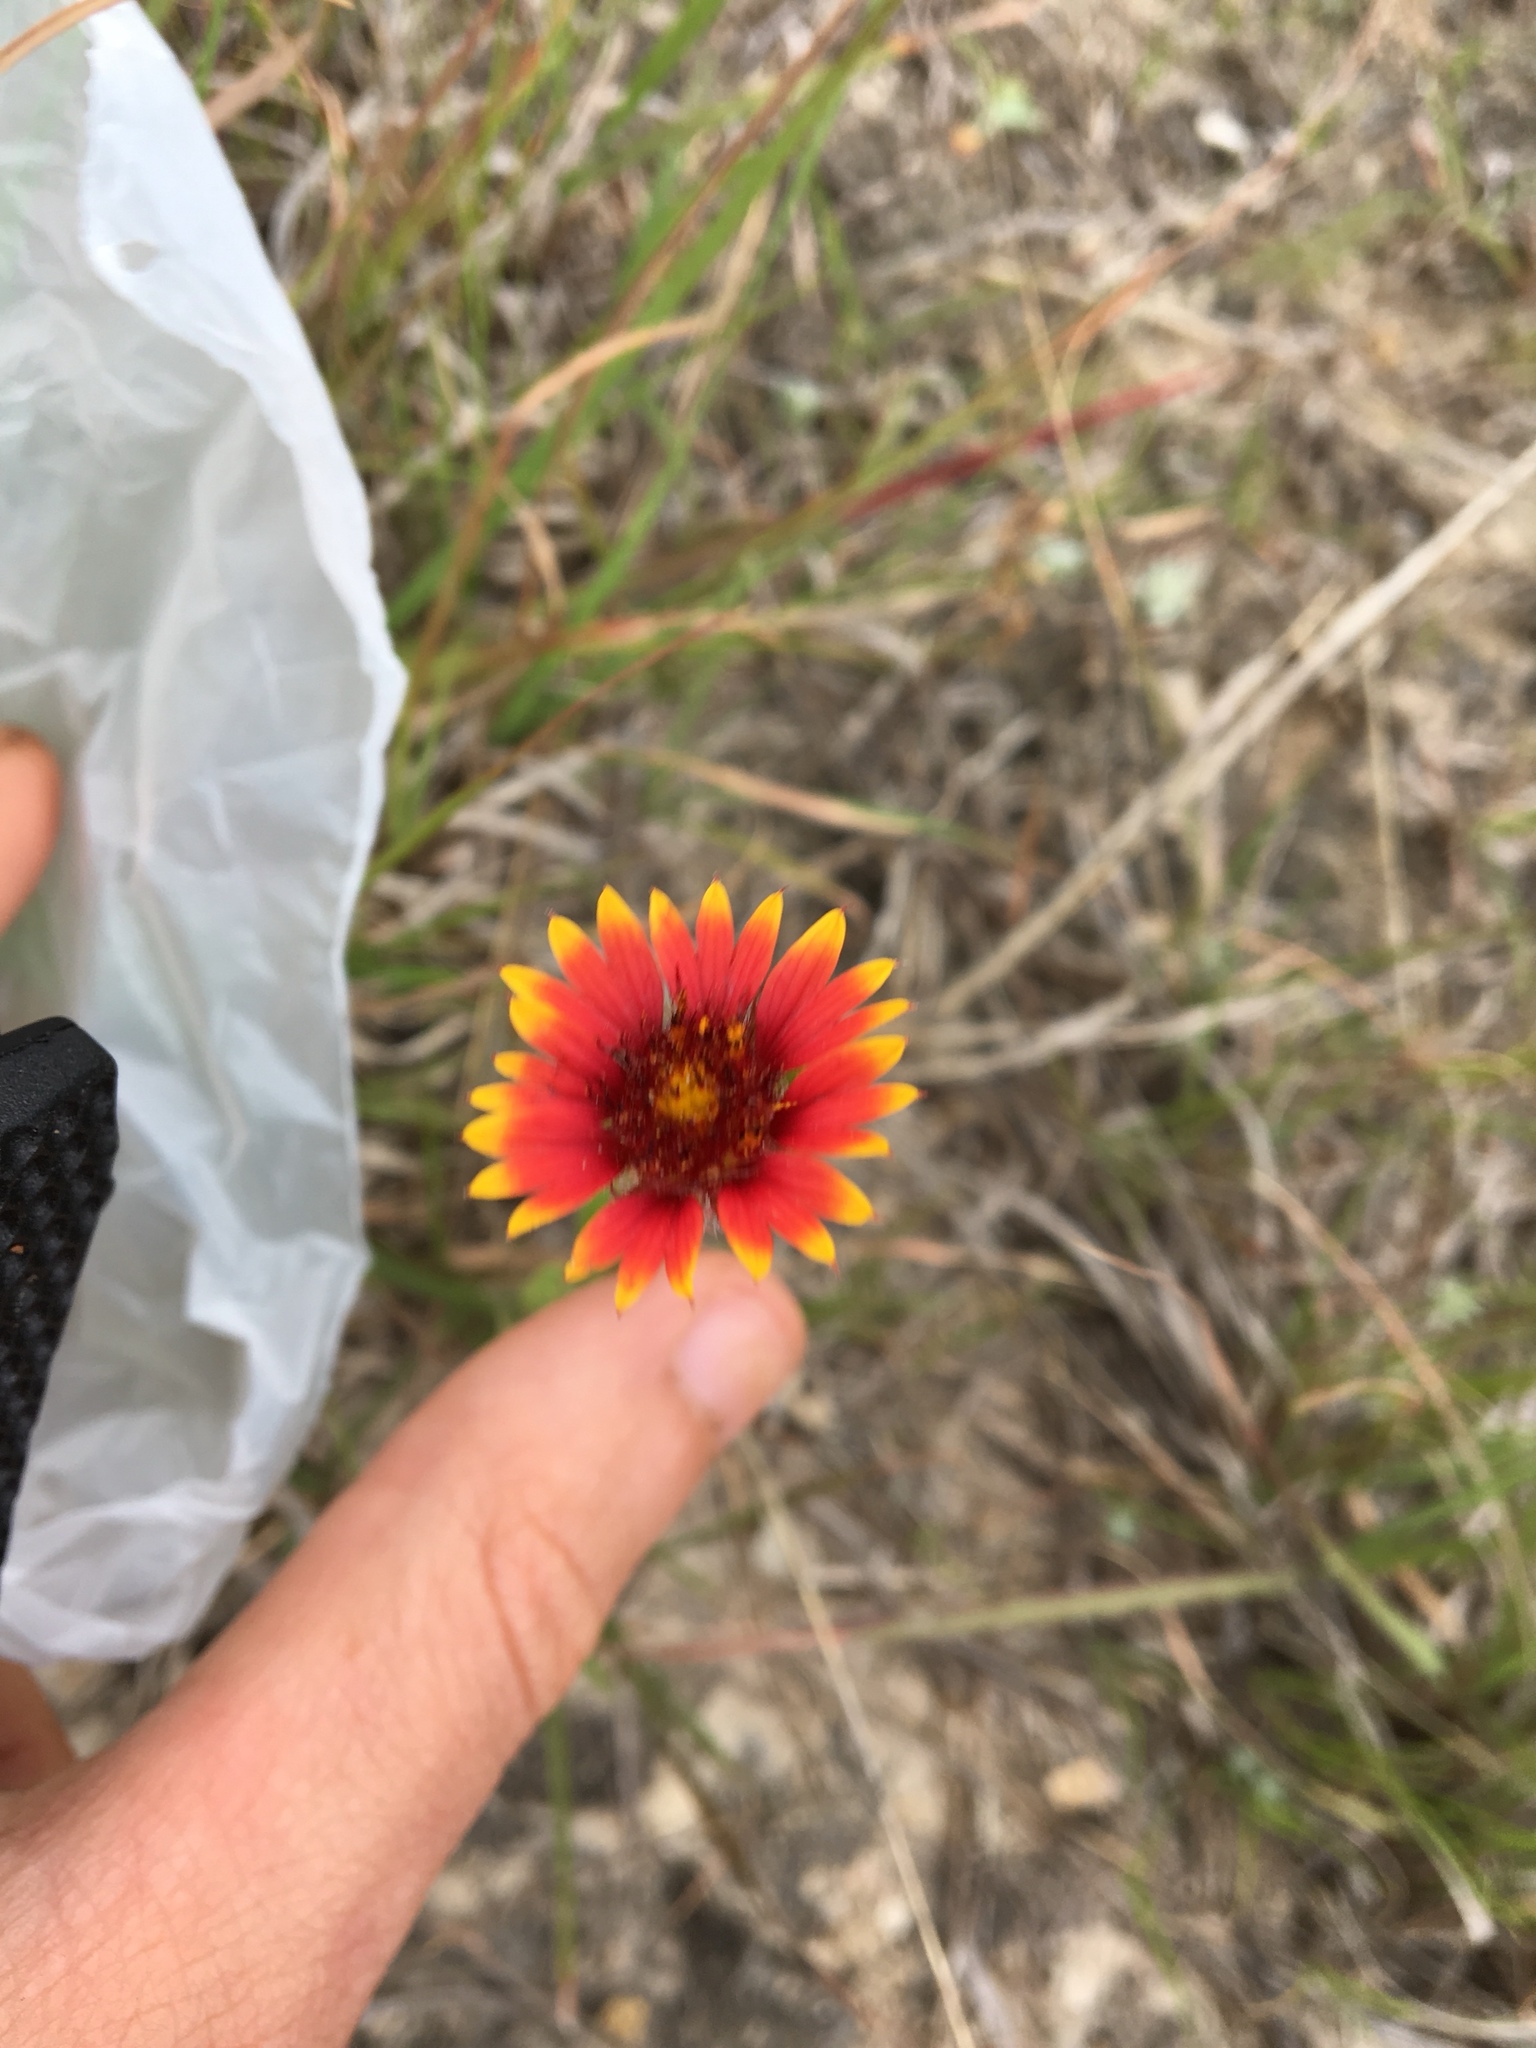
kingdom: Plantae
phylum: Tracheophyta
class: Magnoliopsida
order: Asterales
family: Asteraceae
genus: Gaillardia
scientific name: Gaillardia pulchella
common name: Firewheel
